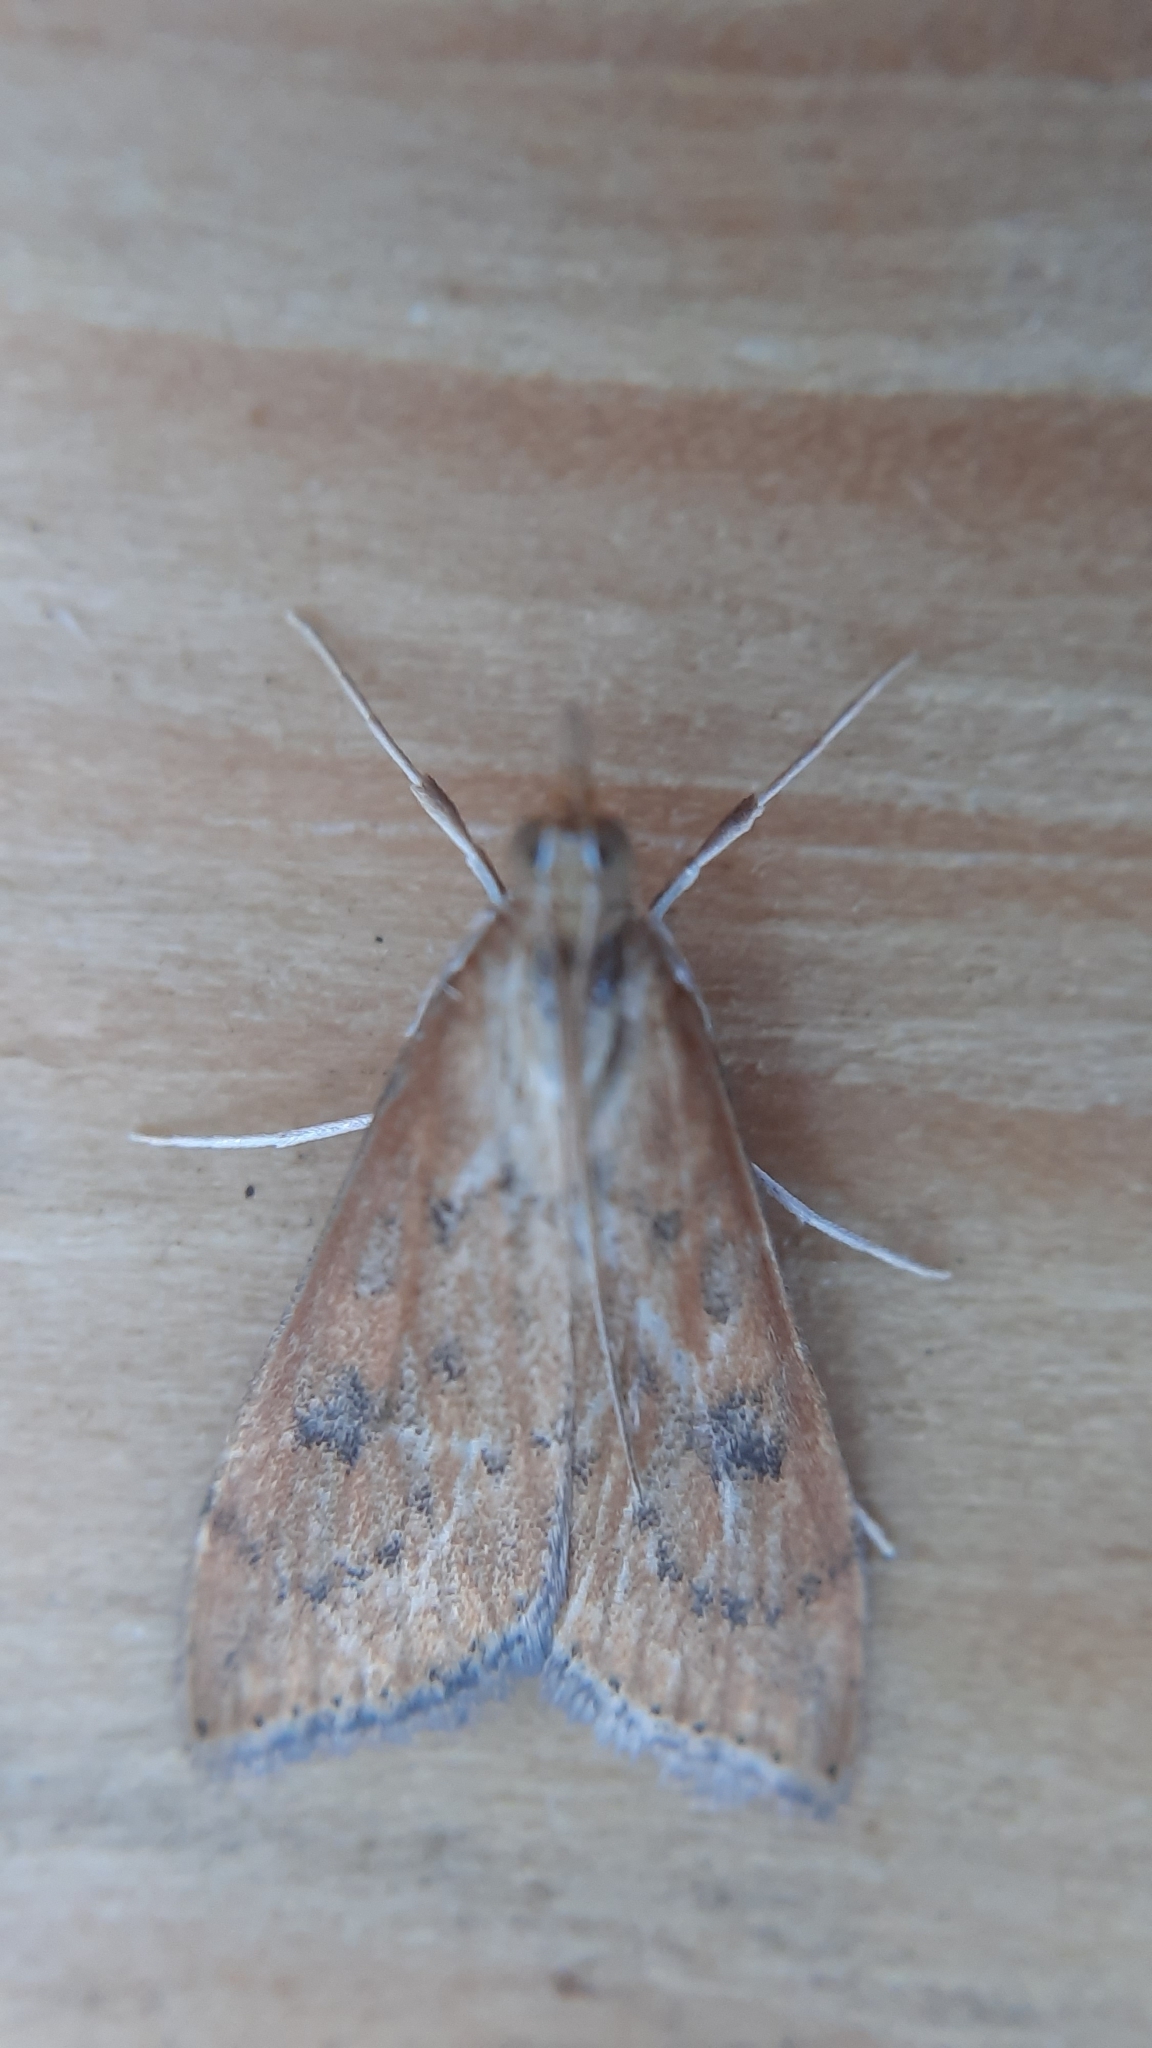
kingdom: Animalia
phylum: Arthropoda
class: Insecta
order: Lepidoptera
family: Crambidae
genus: Udea
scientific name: Udea ferrugalis
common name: Rusty dot
